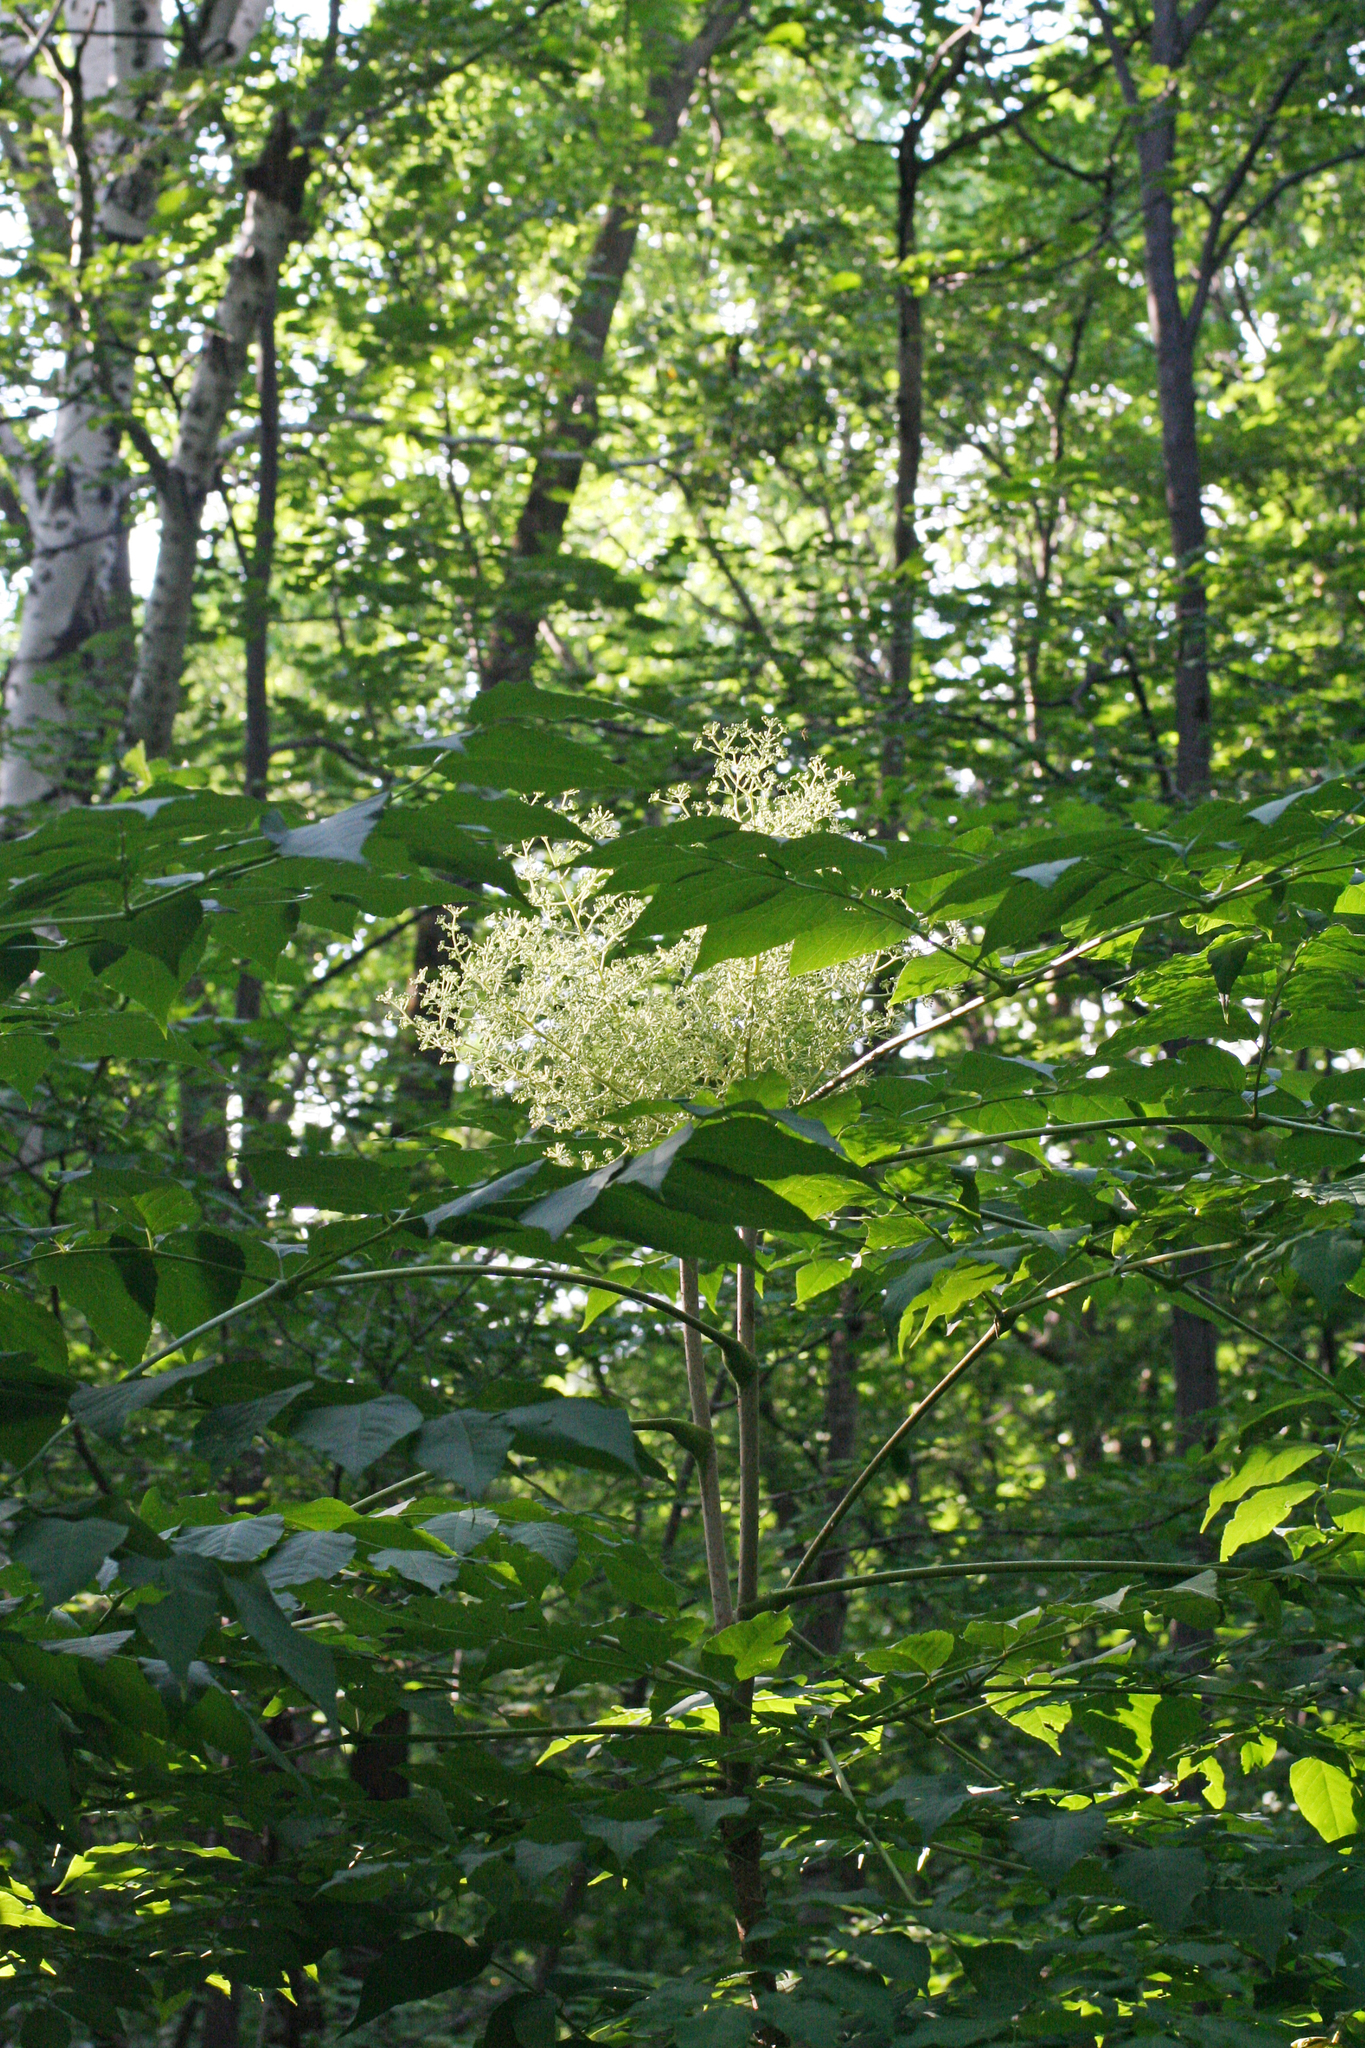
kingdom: Plantae
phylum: Tracheophyta
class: Magnoliopsida
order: Apiales
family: Araliaceae
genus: Aralia
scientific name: Aralia elata
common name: Japanese angelica-tree
